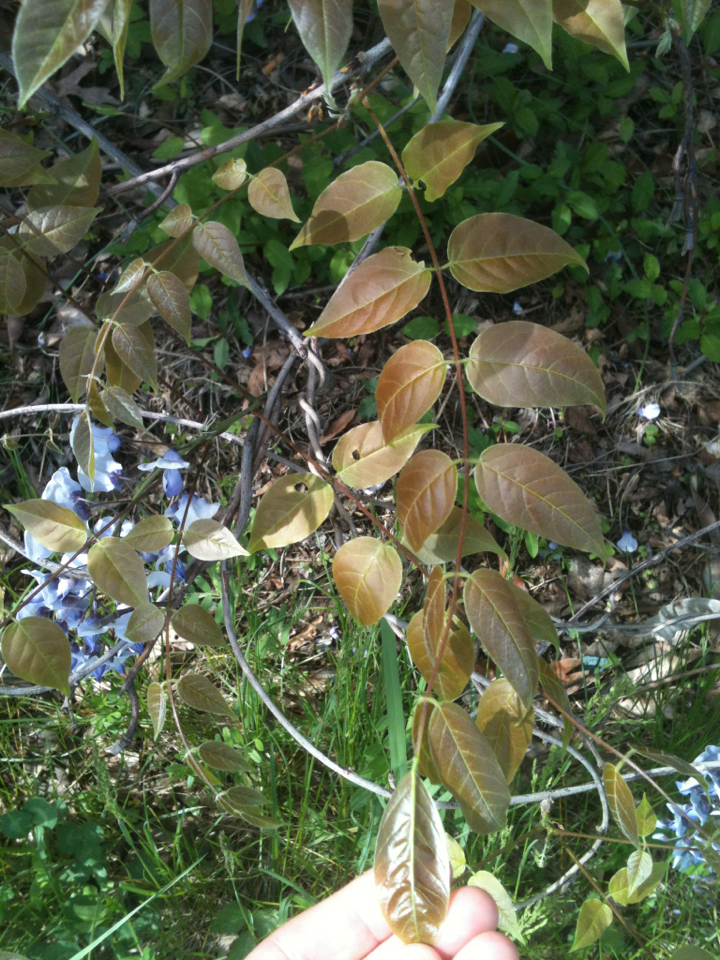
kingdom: Plantae
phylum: Tracheophyta
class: Magnoliopsida
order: Fabales
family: Fabaceae
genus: Wisteria
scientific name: Wisteria floribunda
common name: Japanese wisteria
